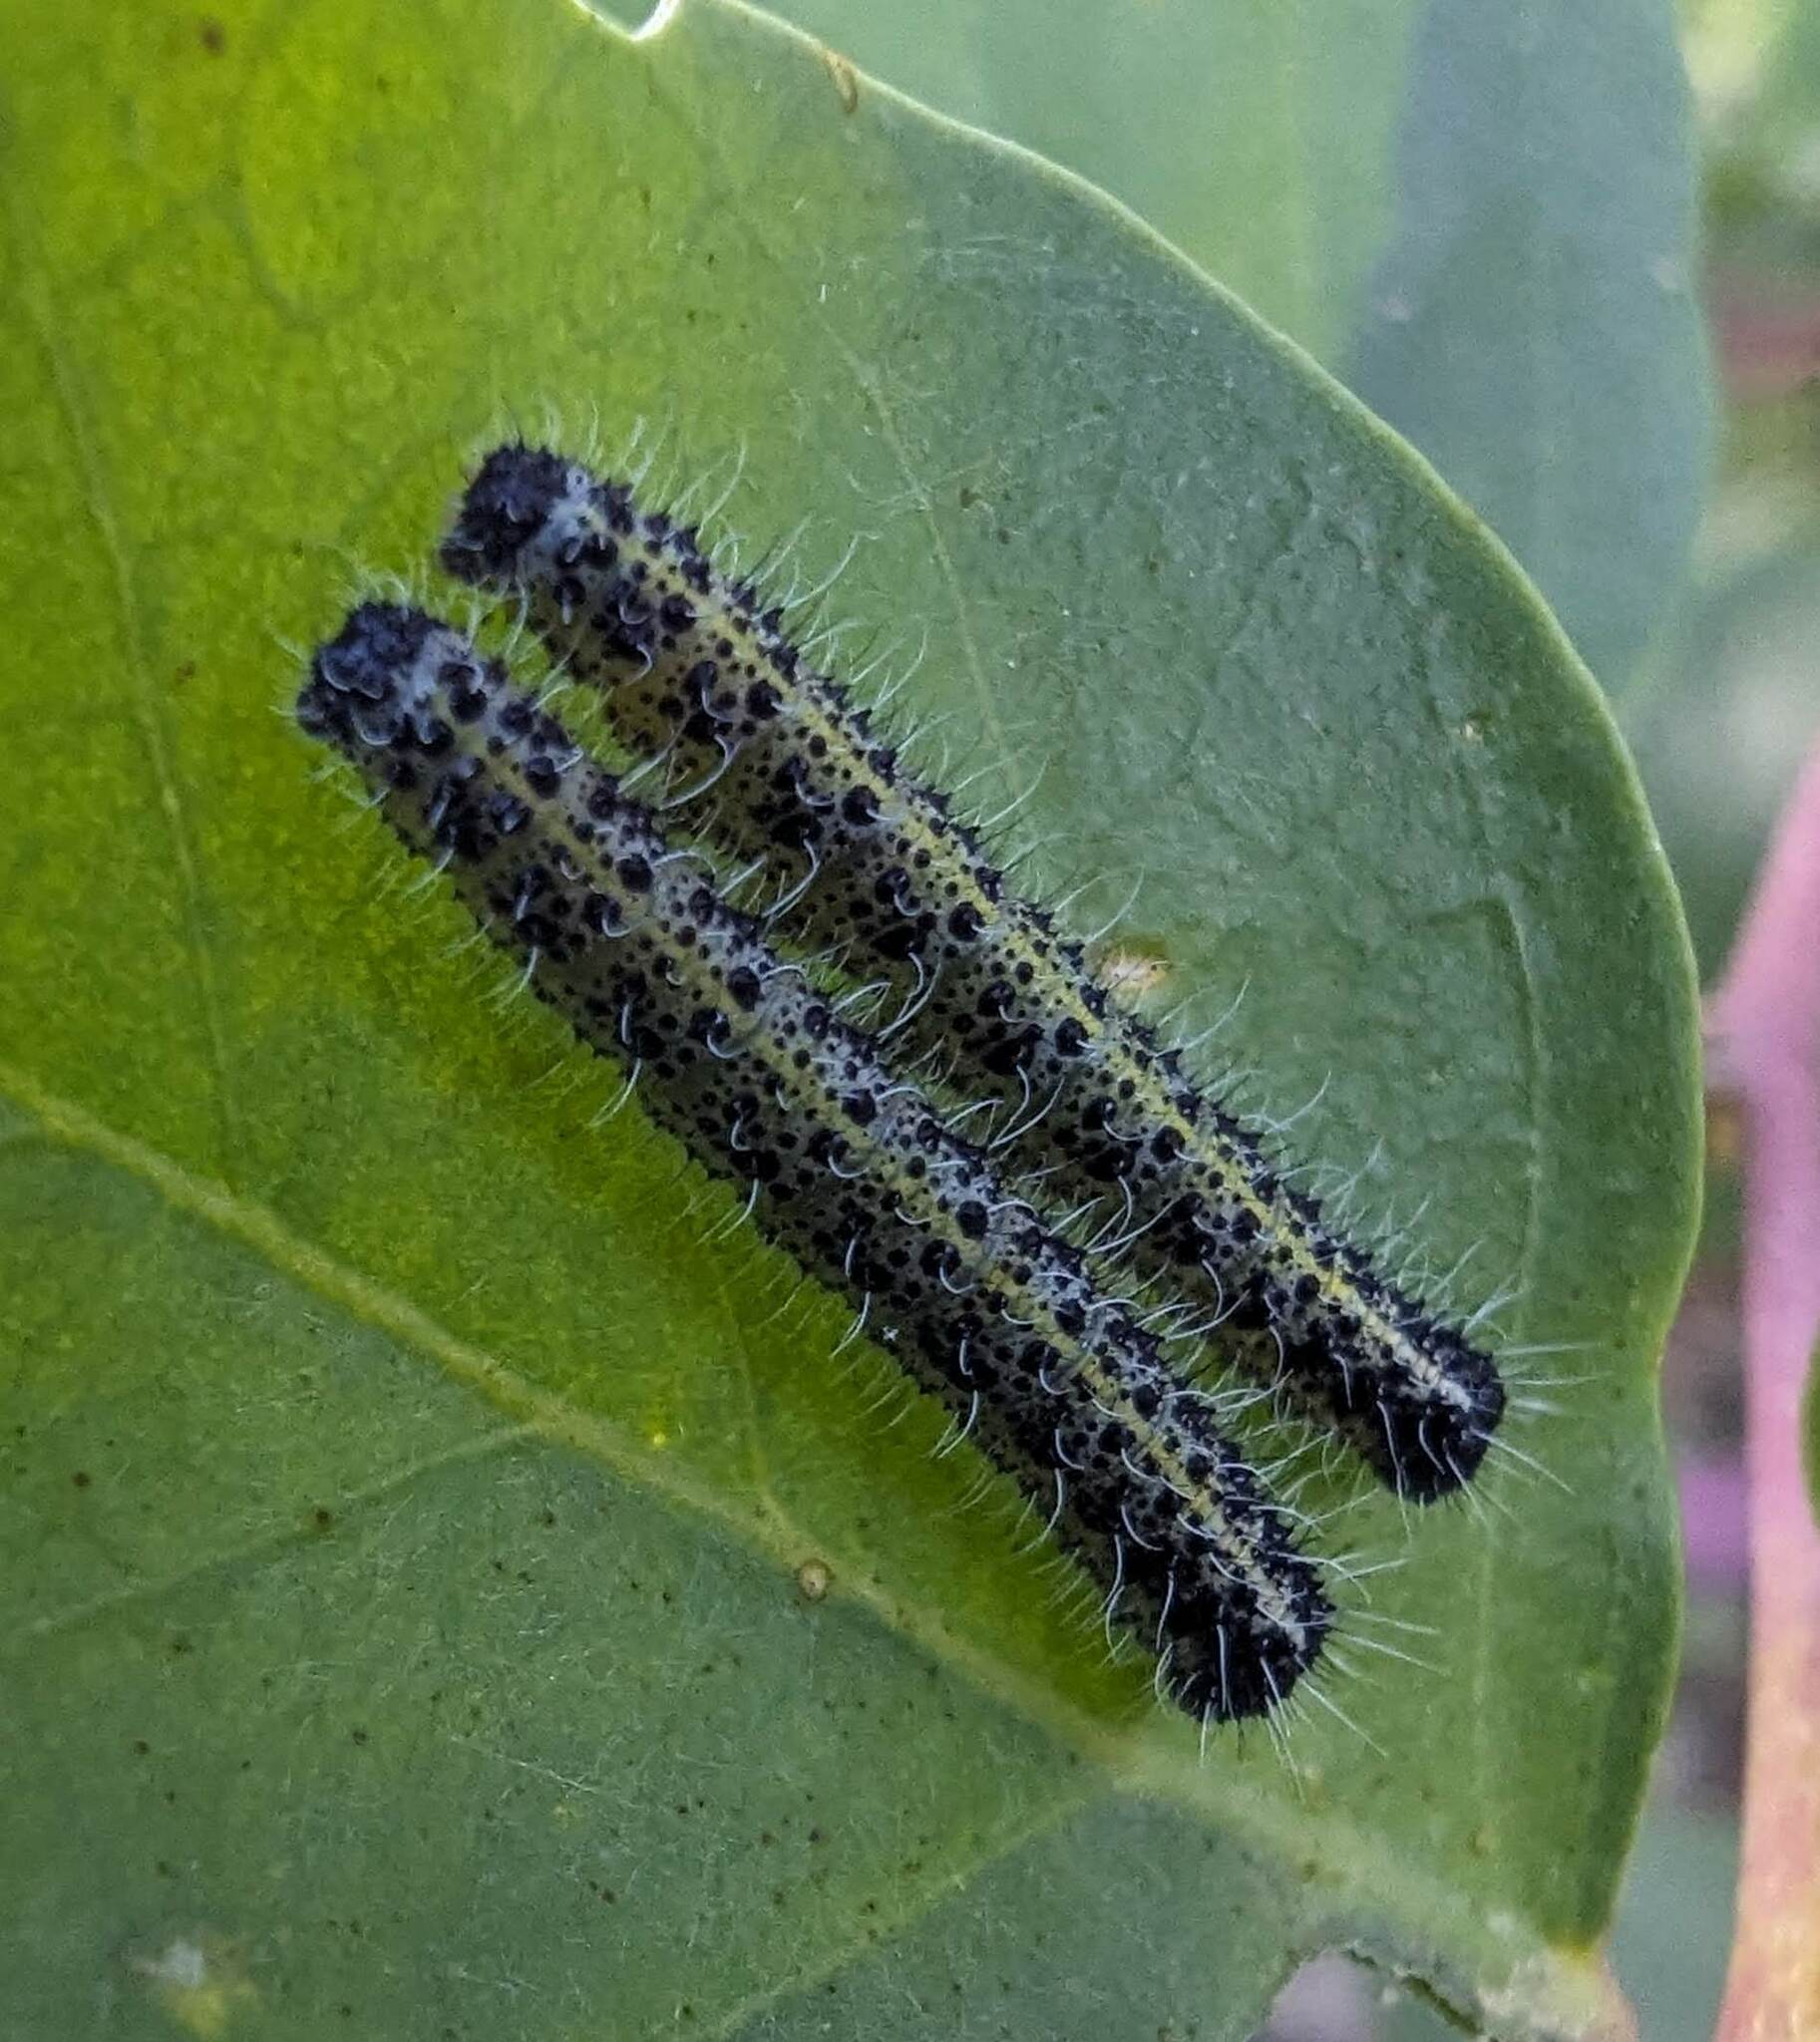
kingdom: Animalia
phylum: Arthropoda
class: Insecta
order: Lepidoptera
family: Pieridae
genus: Pieris
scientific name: Pieris brassicae
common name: Large white
